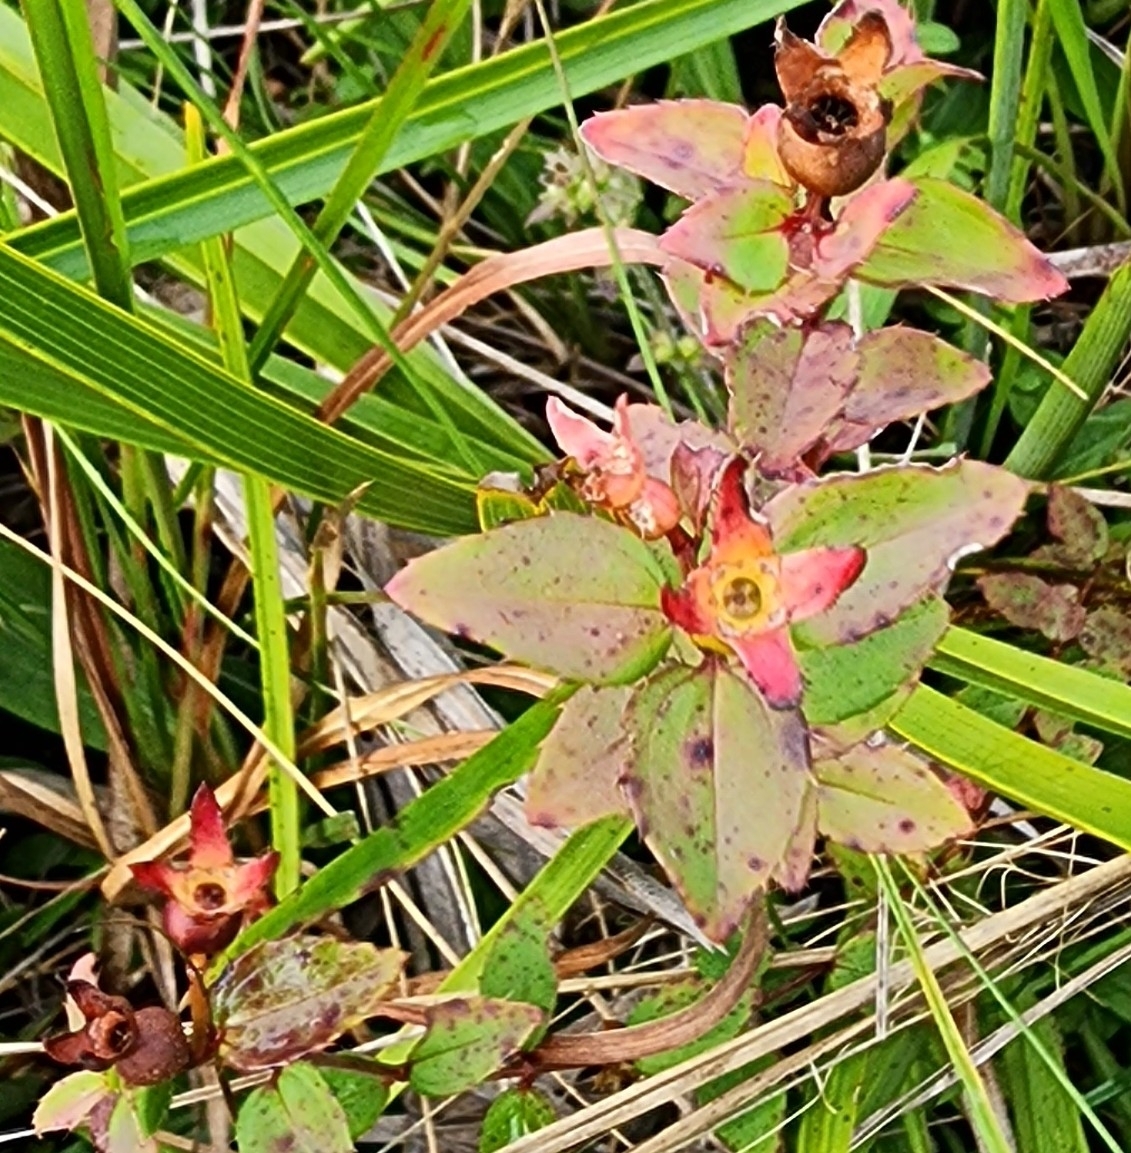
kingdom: Plantae
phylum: Tracheophyta
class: Magnoliopsida
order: Myrtales
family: Melastomataceae
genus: Rhexia
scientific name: Rhexia petiolata
